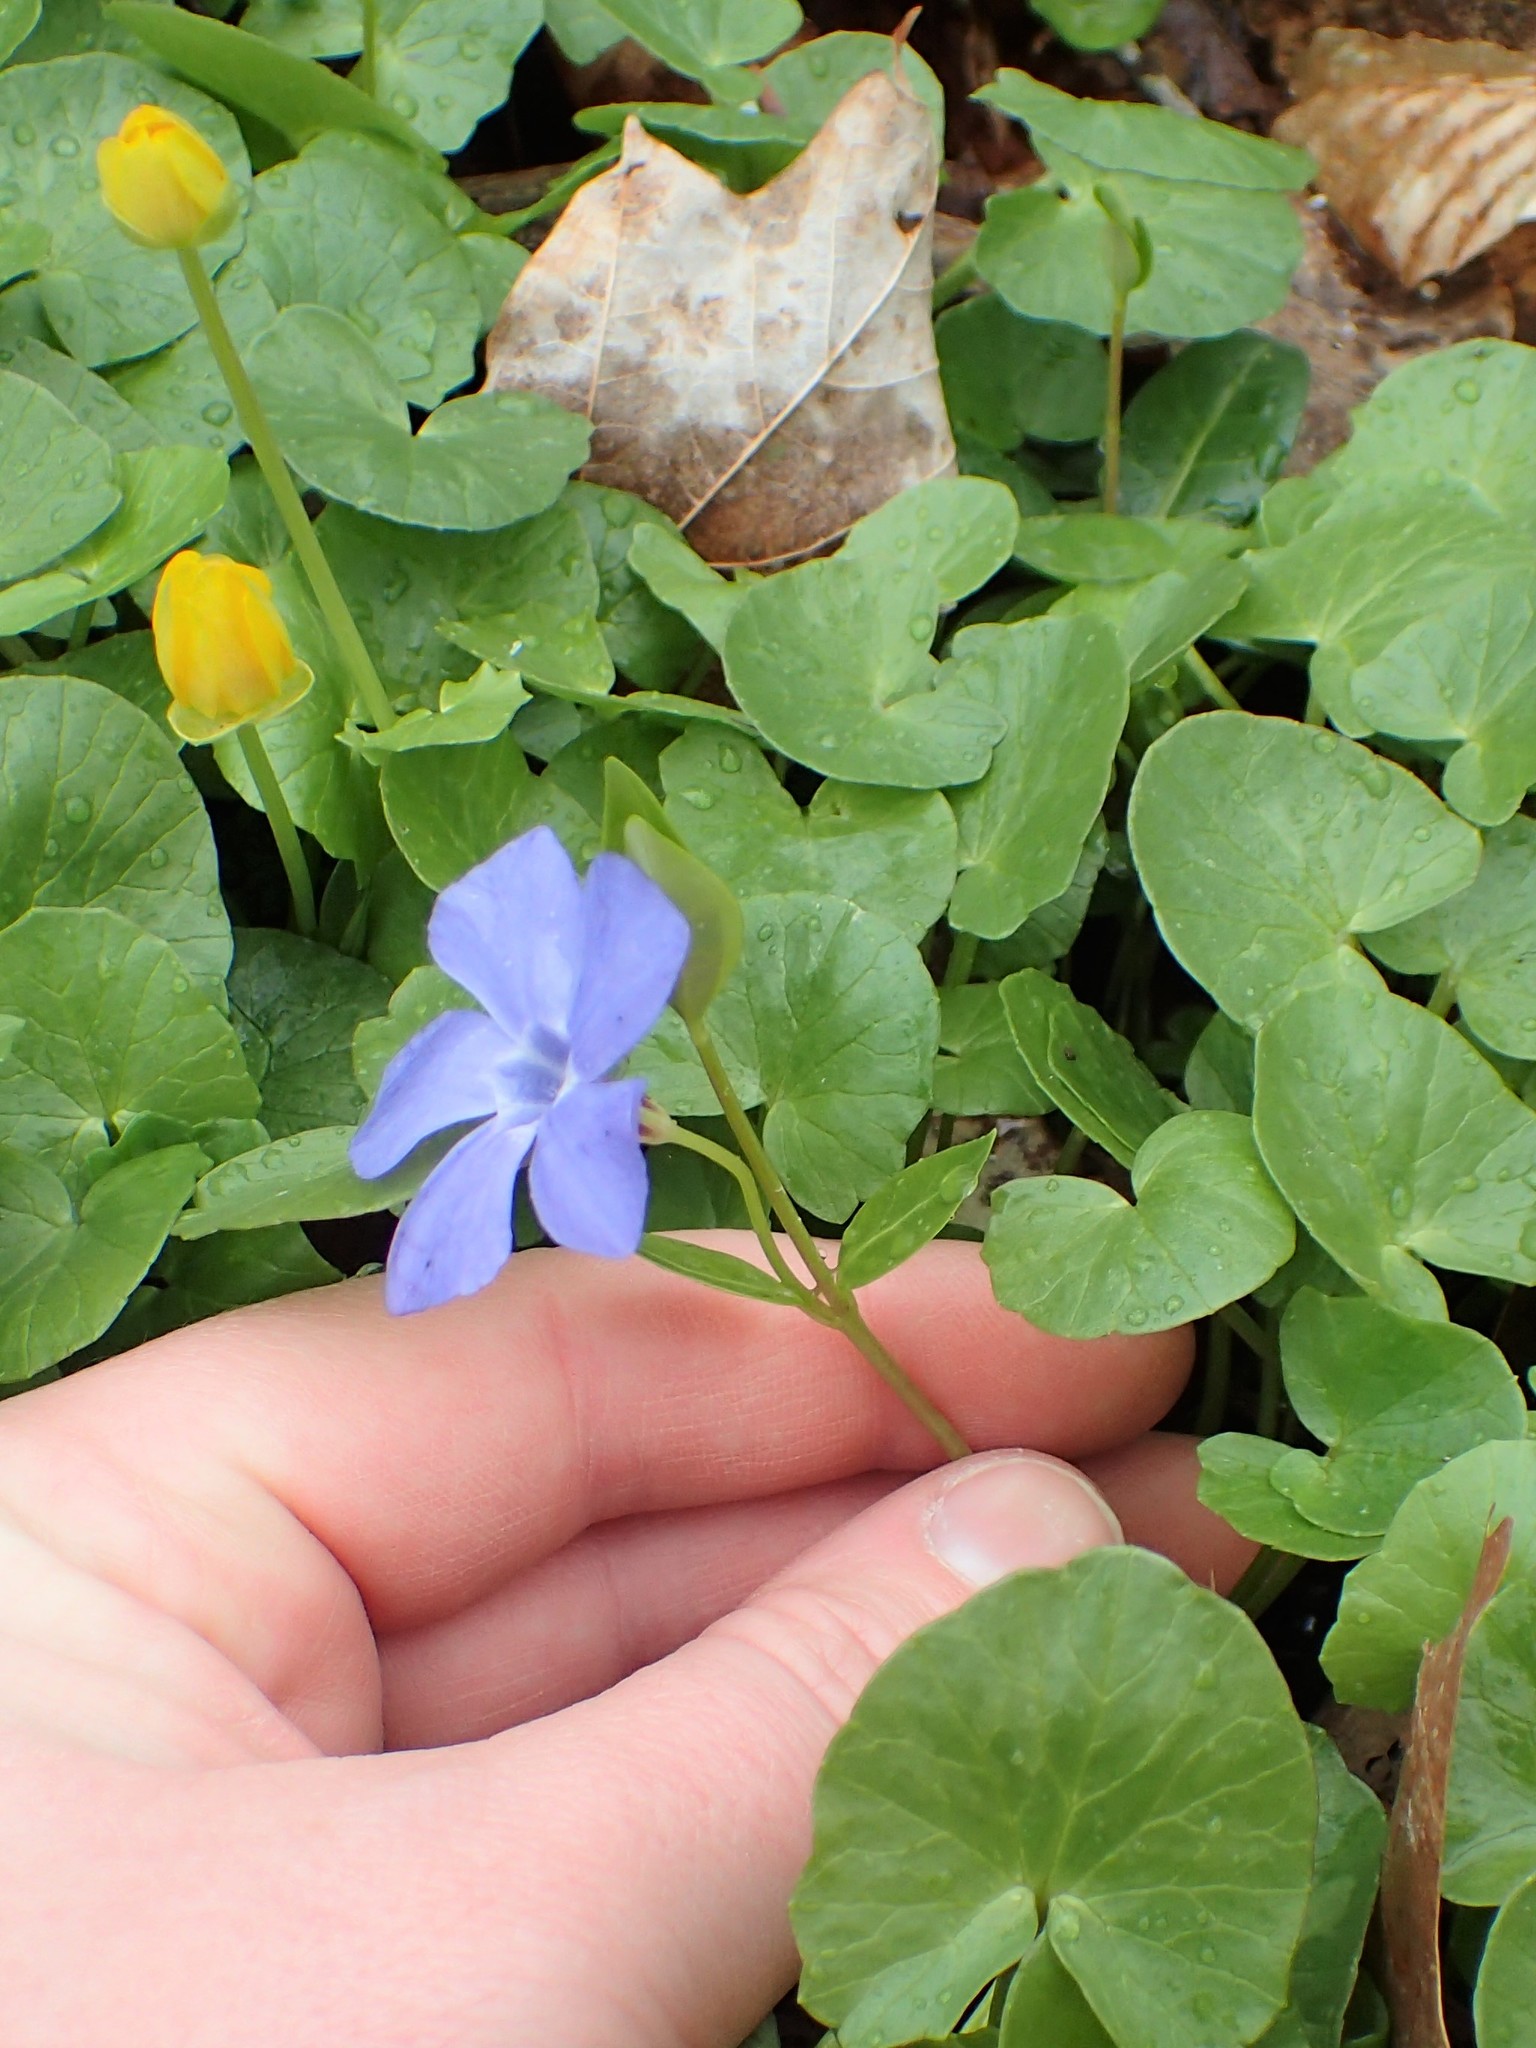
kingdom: Plantae
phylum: Tracheophyta
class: Magnoliopsida
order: Gentianales
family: Apocynaceae
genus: Vinca
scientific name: Vinca minor
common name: Lesser periwinkle
